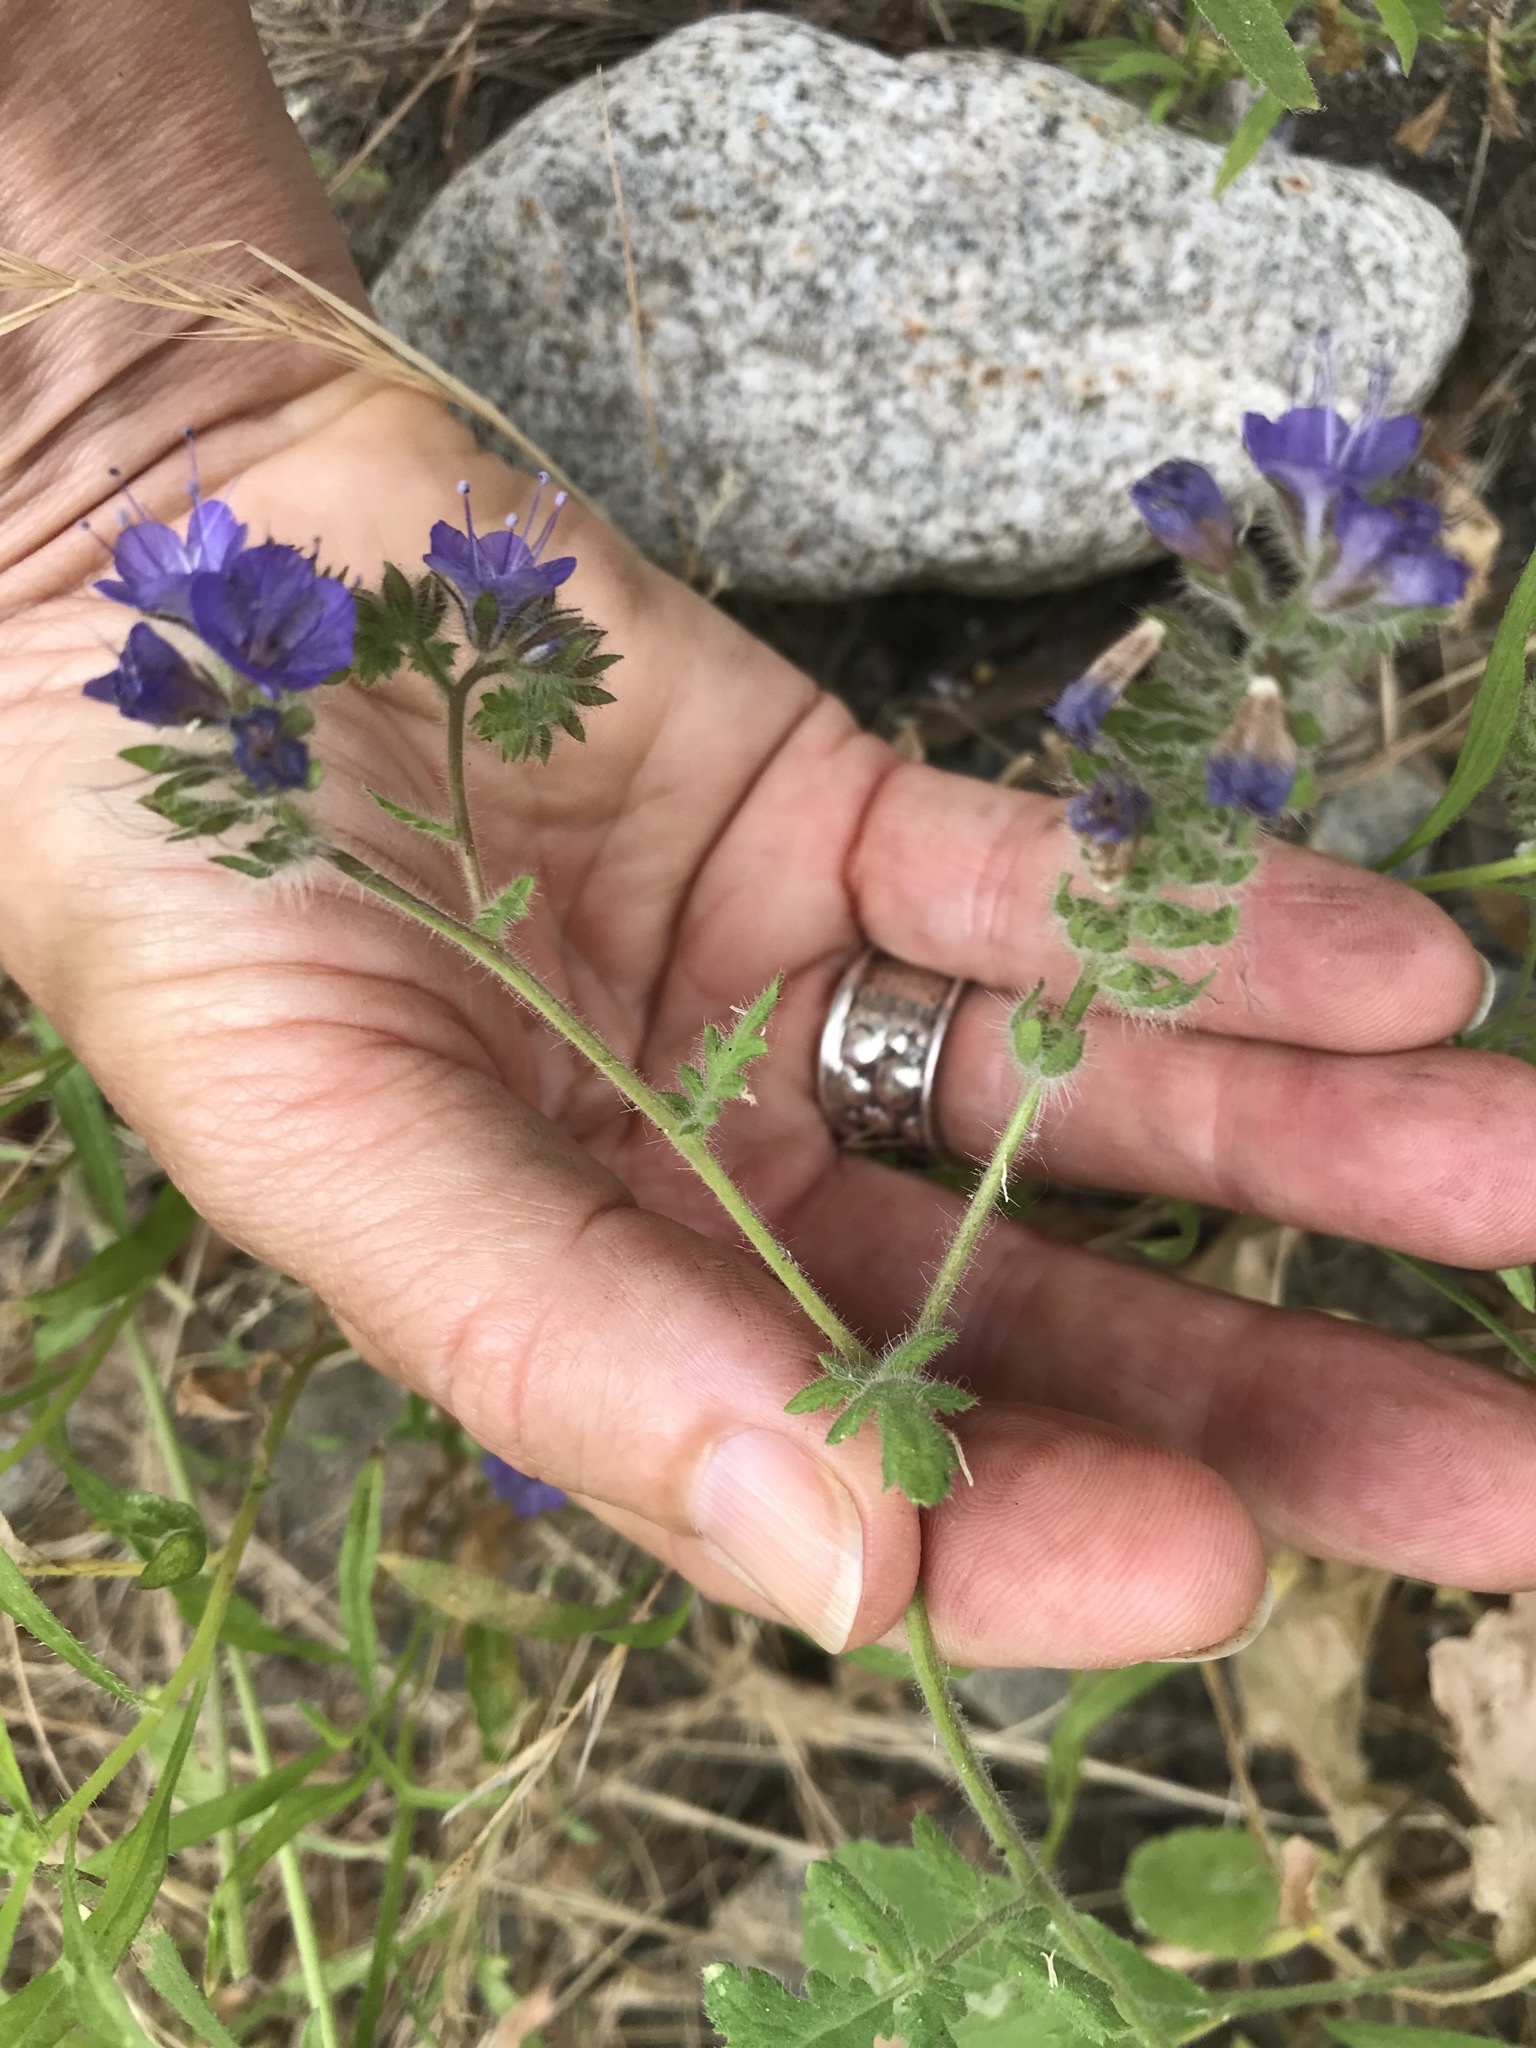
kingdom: Plantae
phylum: Tracheophyta
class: Magnoliopsida
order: Boraginales
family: Hydrophyllaceae
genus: Phacelia
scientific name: Phacelia distans
